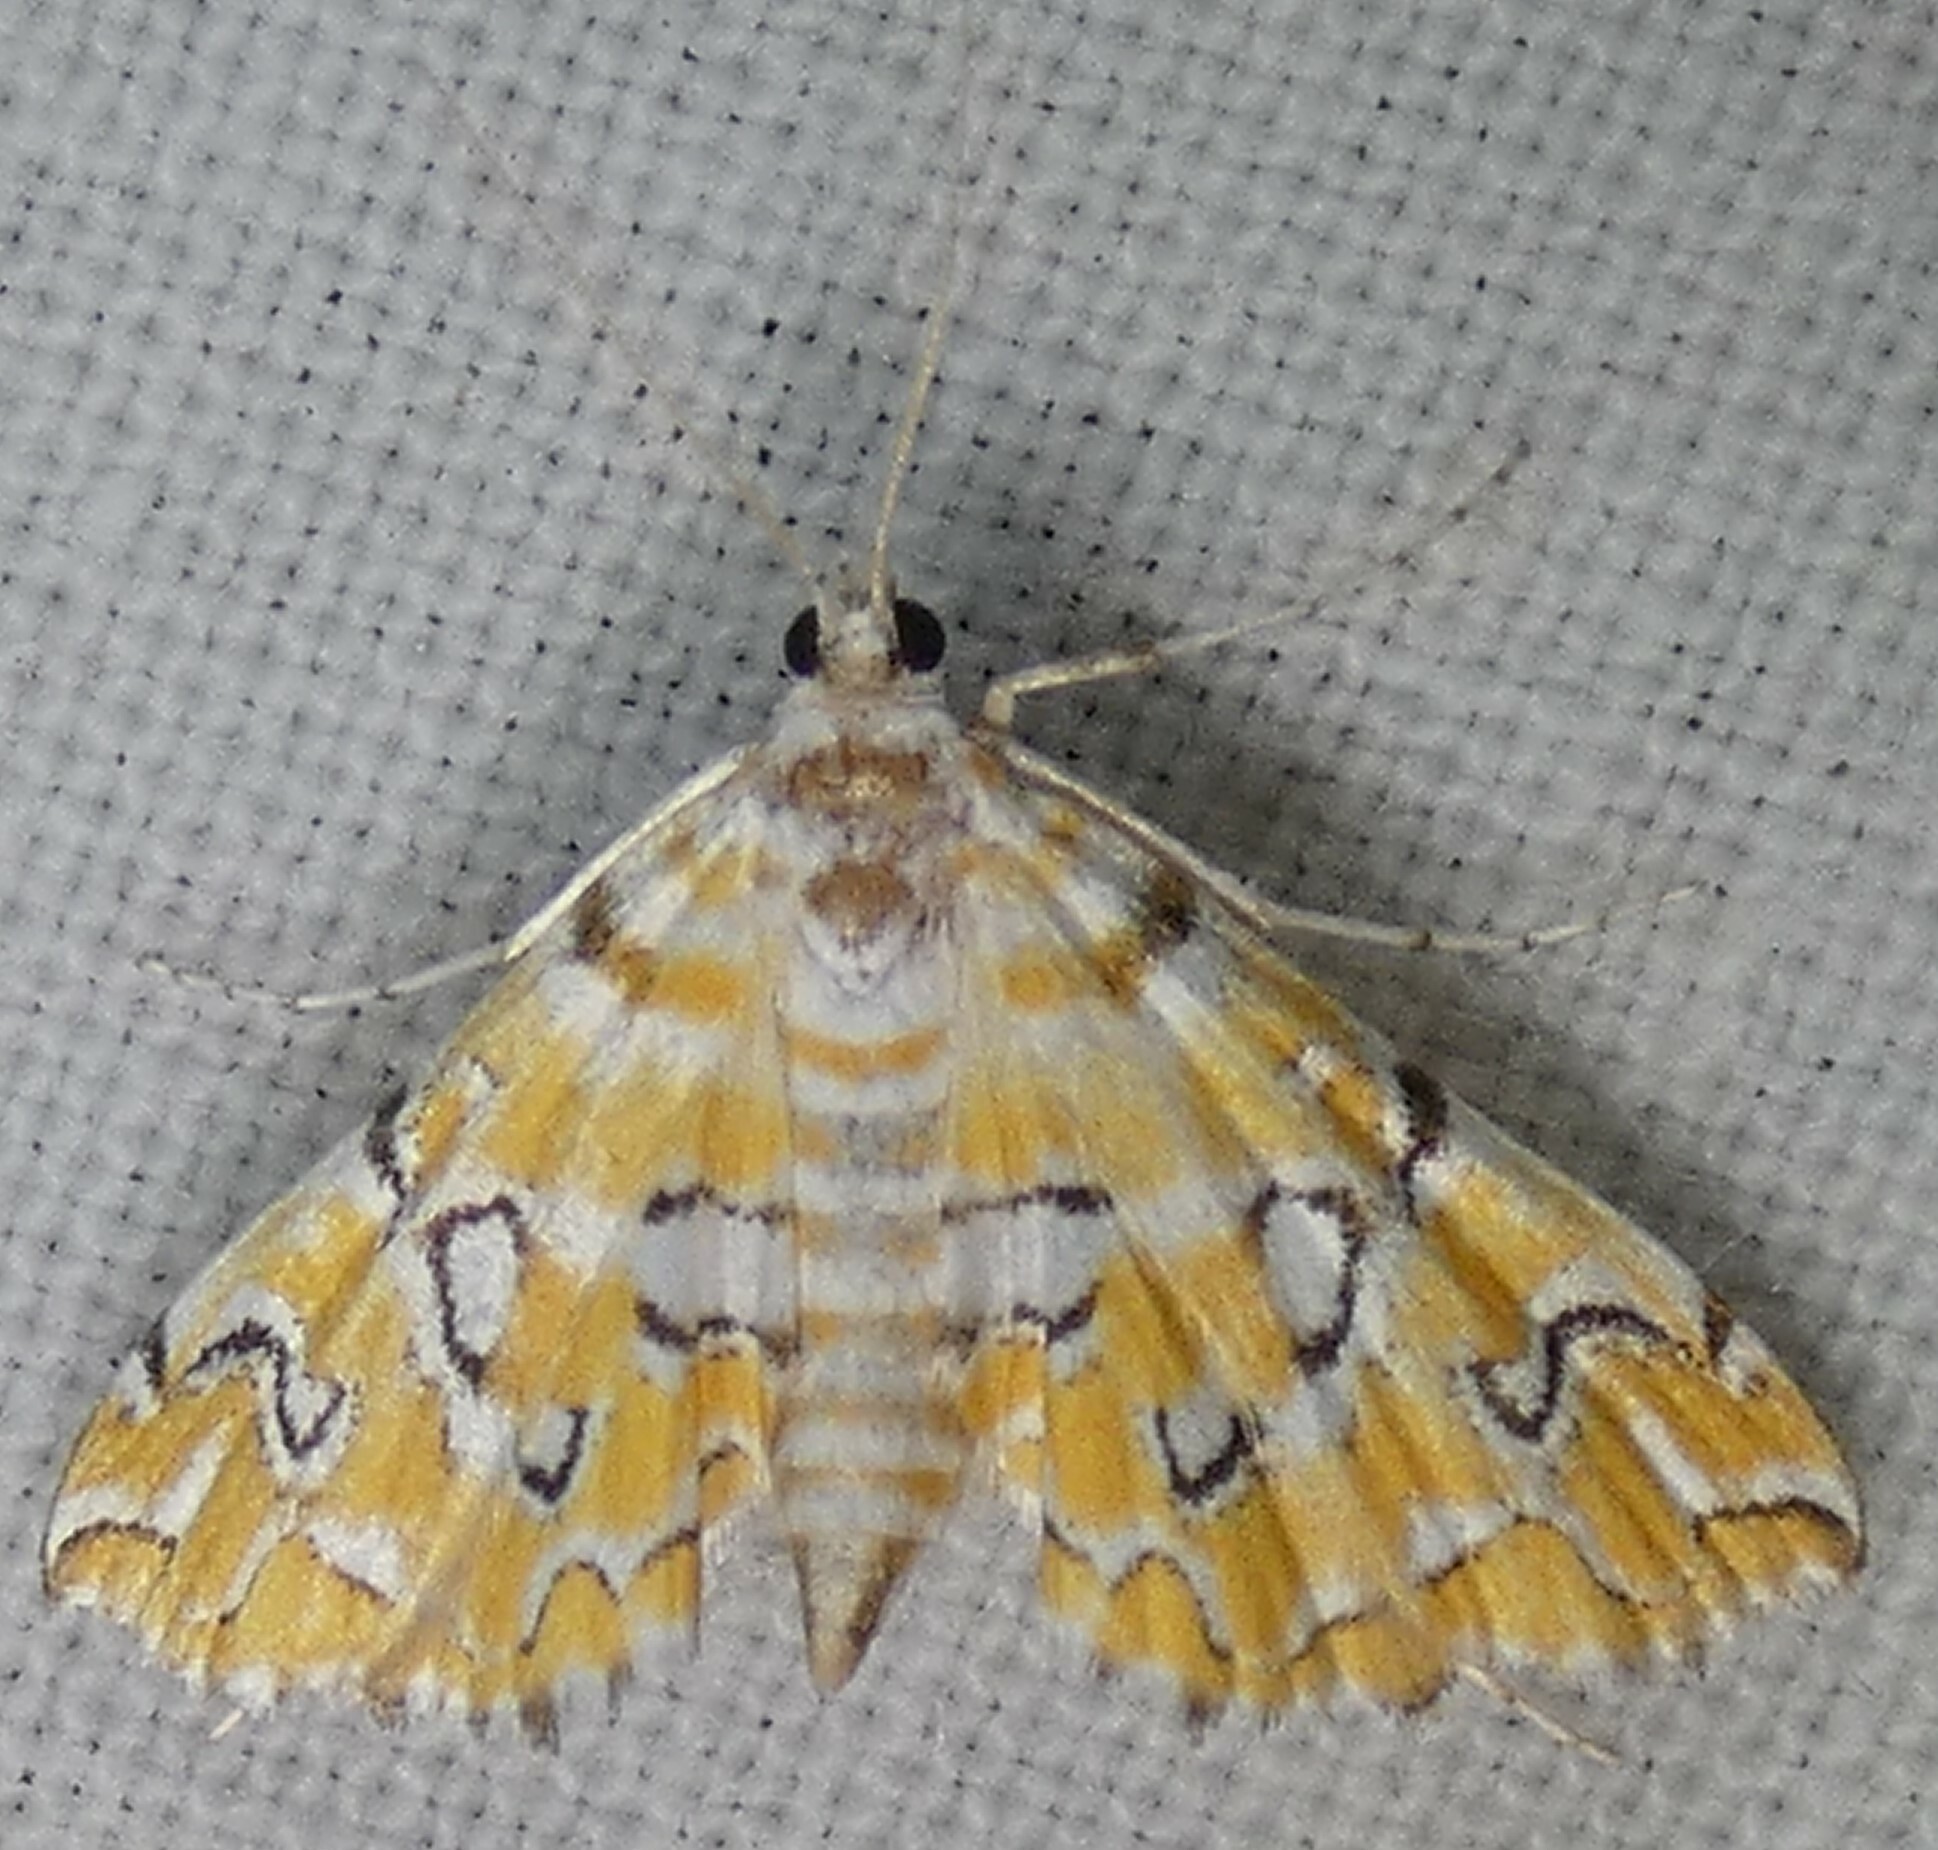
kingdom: Animalia
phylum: Arthropoda
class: Insecta
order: Lepidoptera
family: Crambidae
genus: Elophila
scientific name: Elophila icciusalis
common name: Pondside pyralid moth
